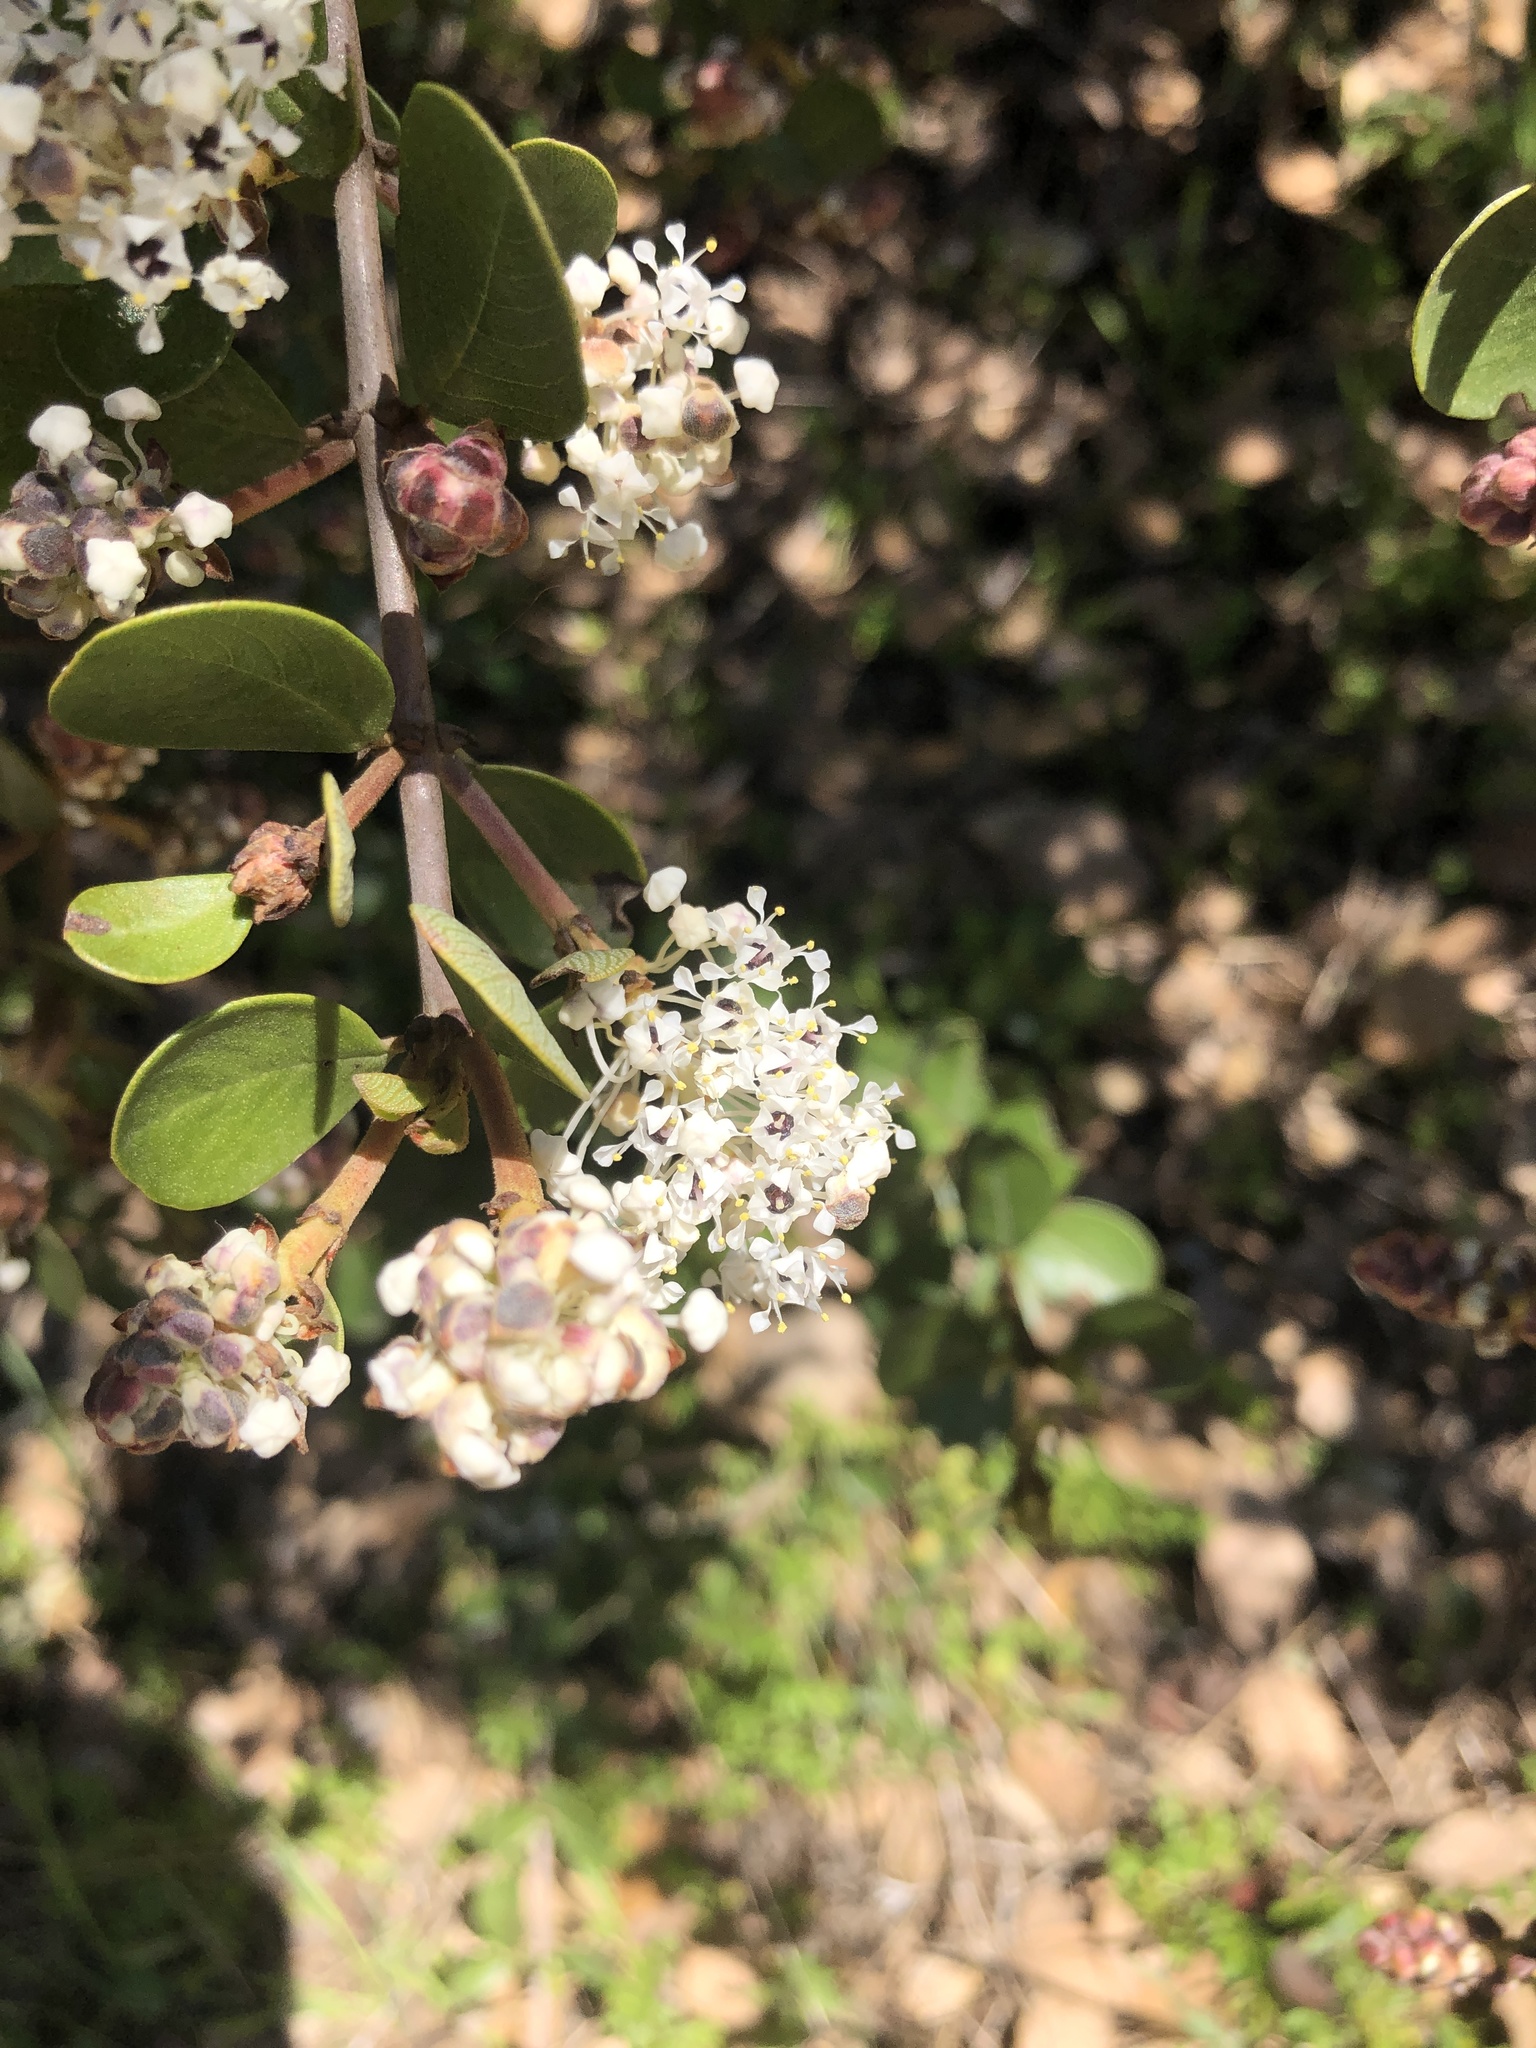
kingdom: Plantae
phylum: Tracheophyta
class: Magnoliopsida
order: Rosales
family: Rhamnaceae
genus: Ceanothus
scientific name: Ceanothus cuneatus
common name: Cuneate ceanothus
